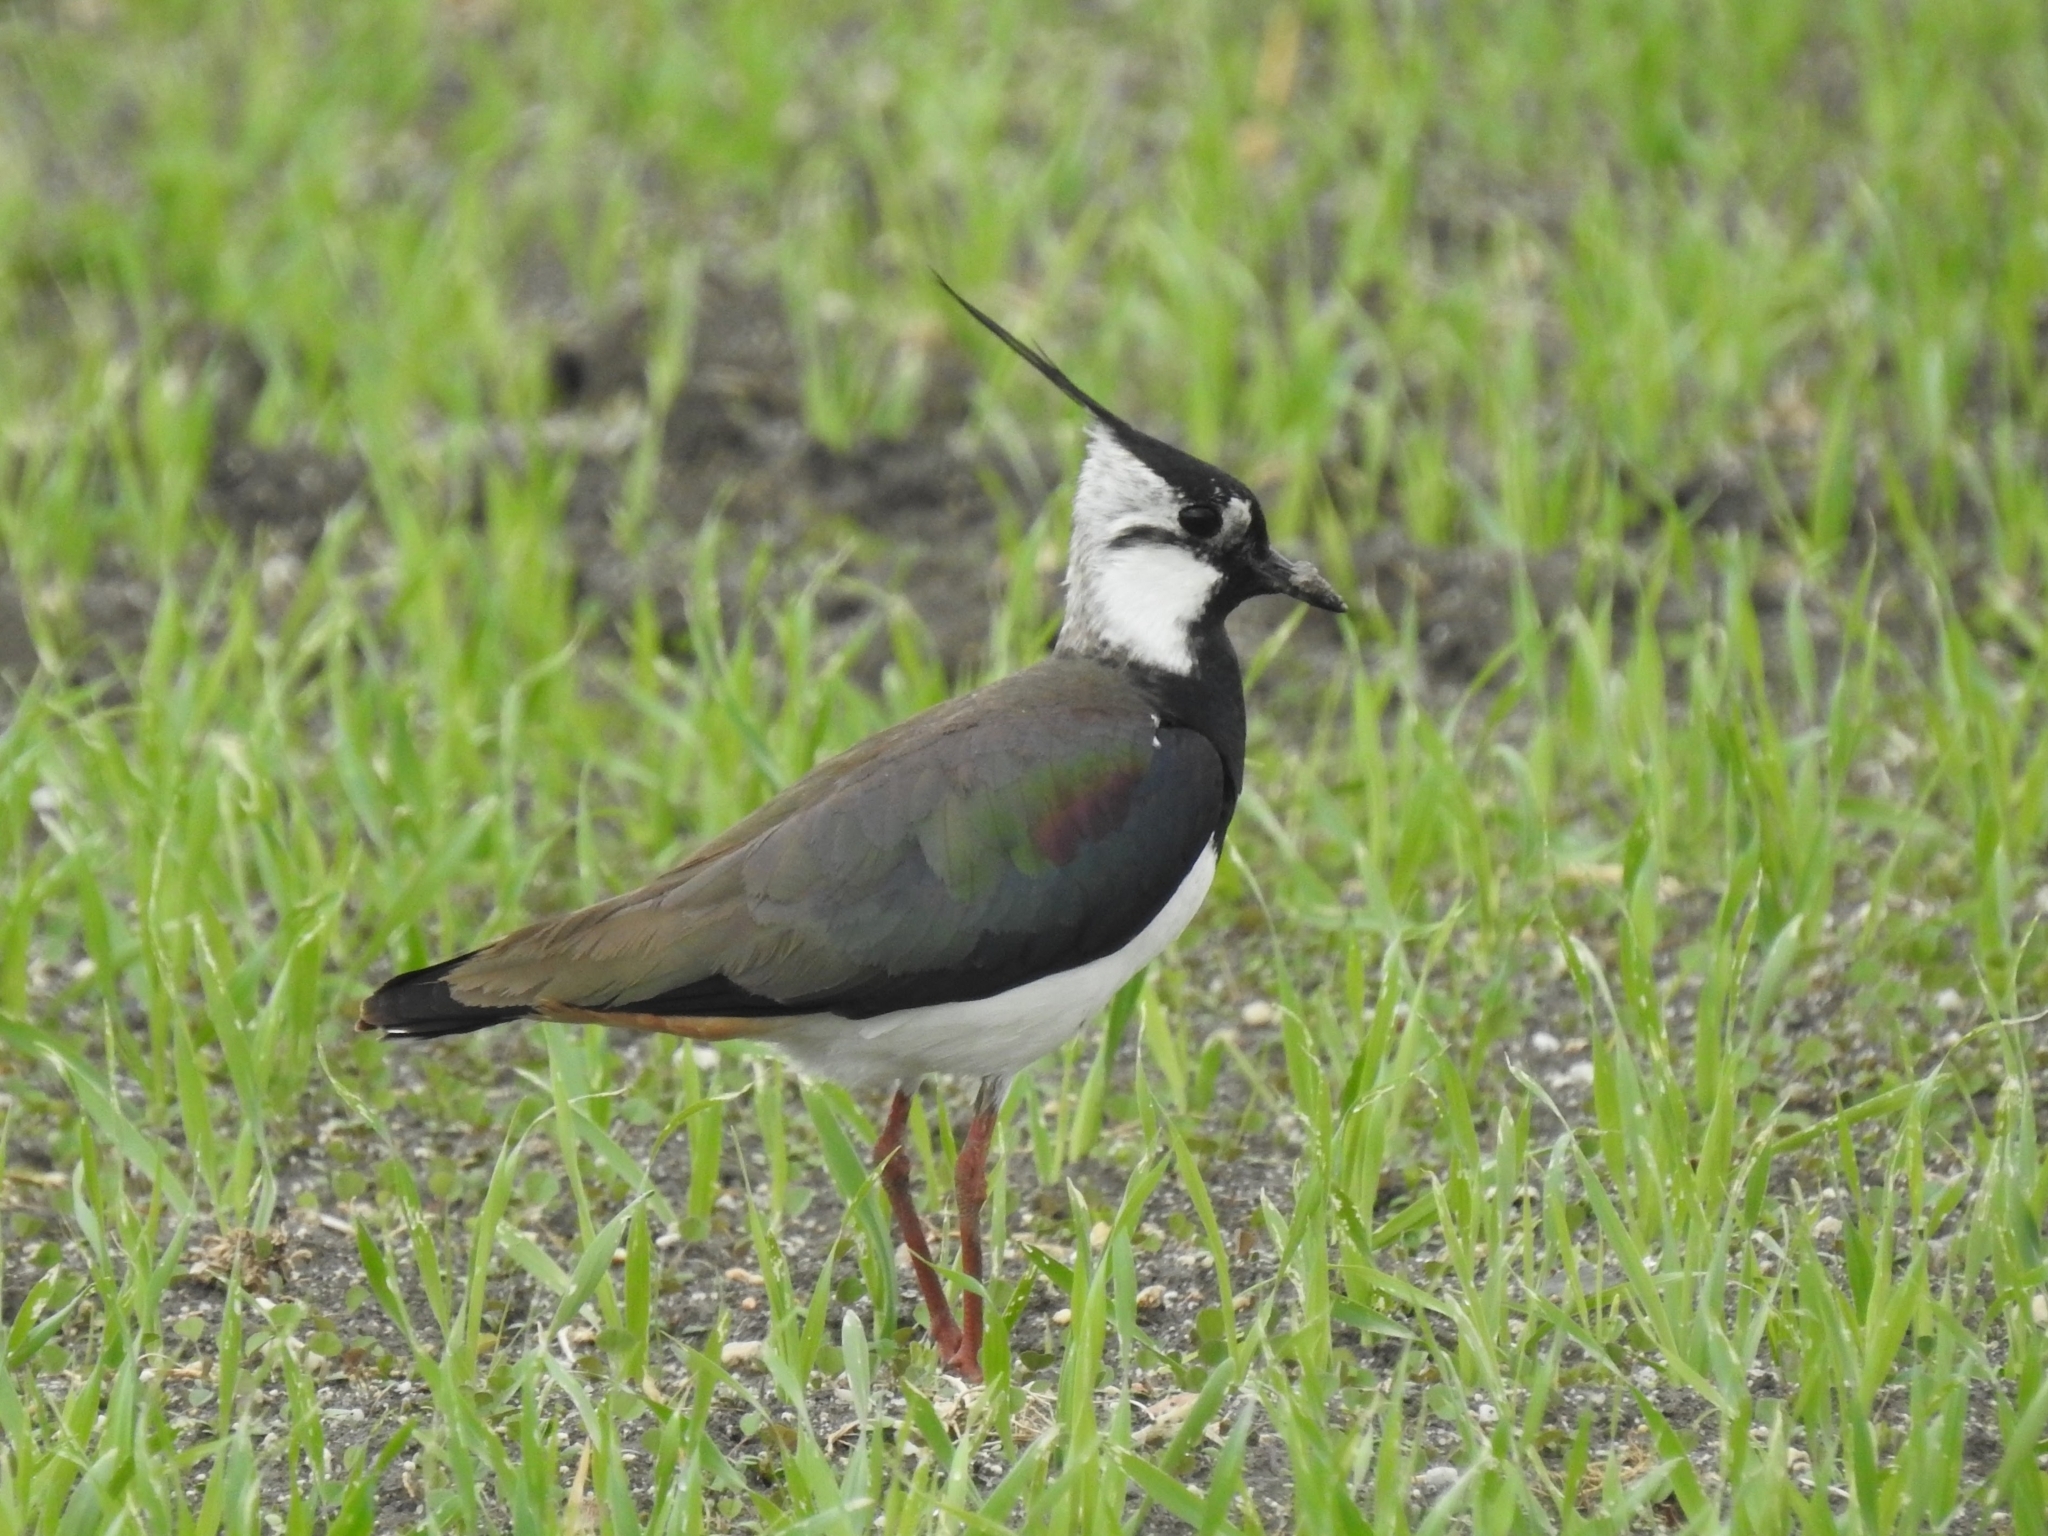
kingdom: Animalia
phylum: Chordata
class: Aves
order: Charadriiformes
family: Charadriidae
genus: Vanellus
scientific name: Vanellus vanellus
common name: Northern lapwing
